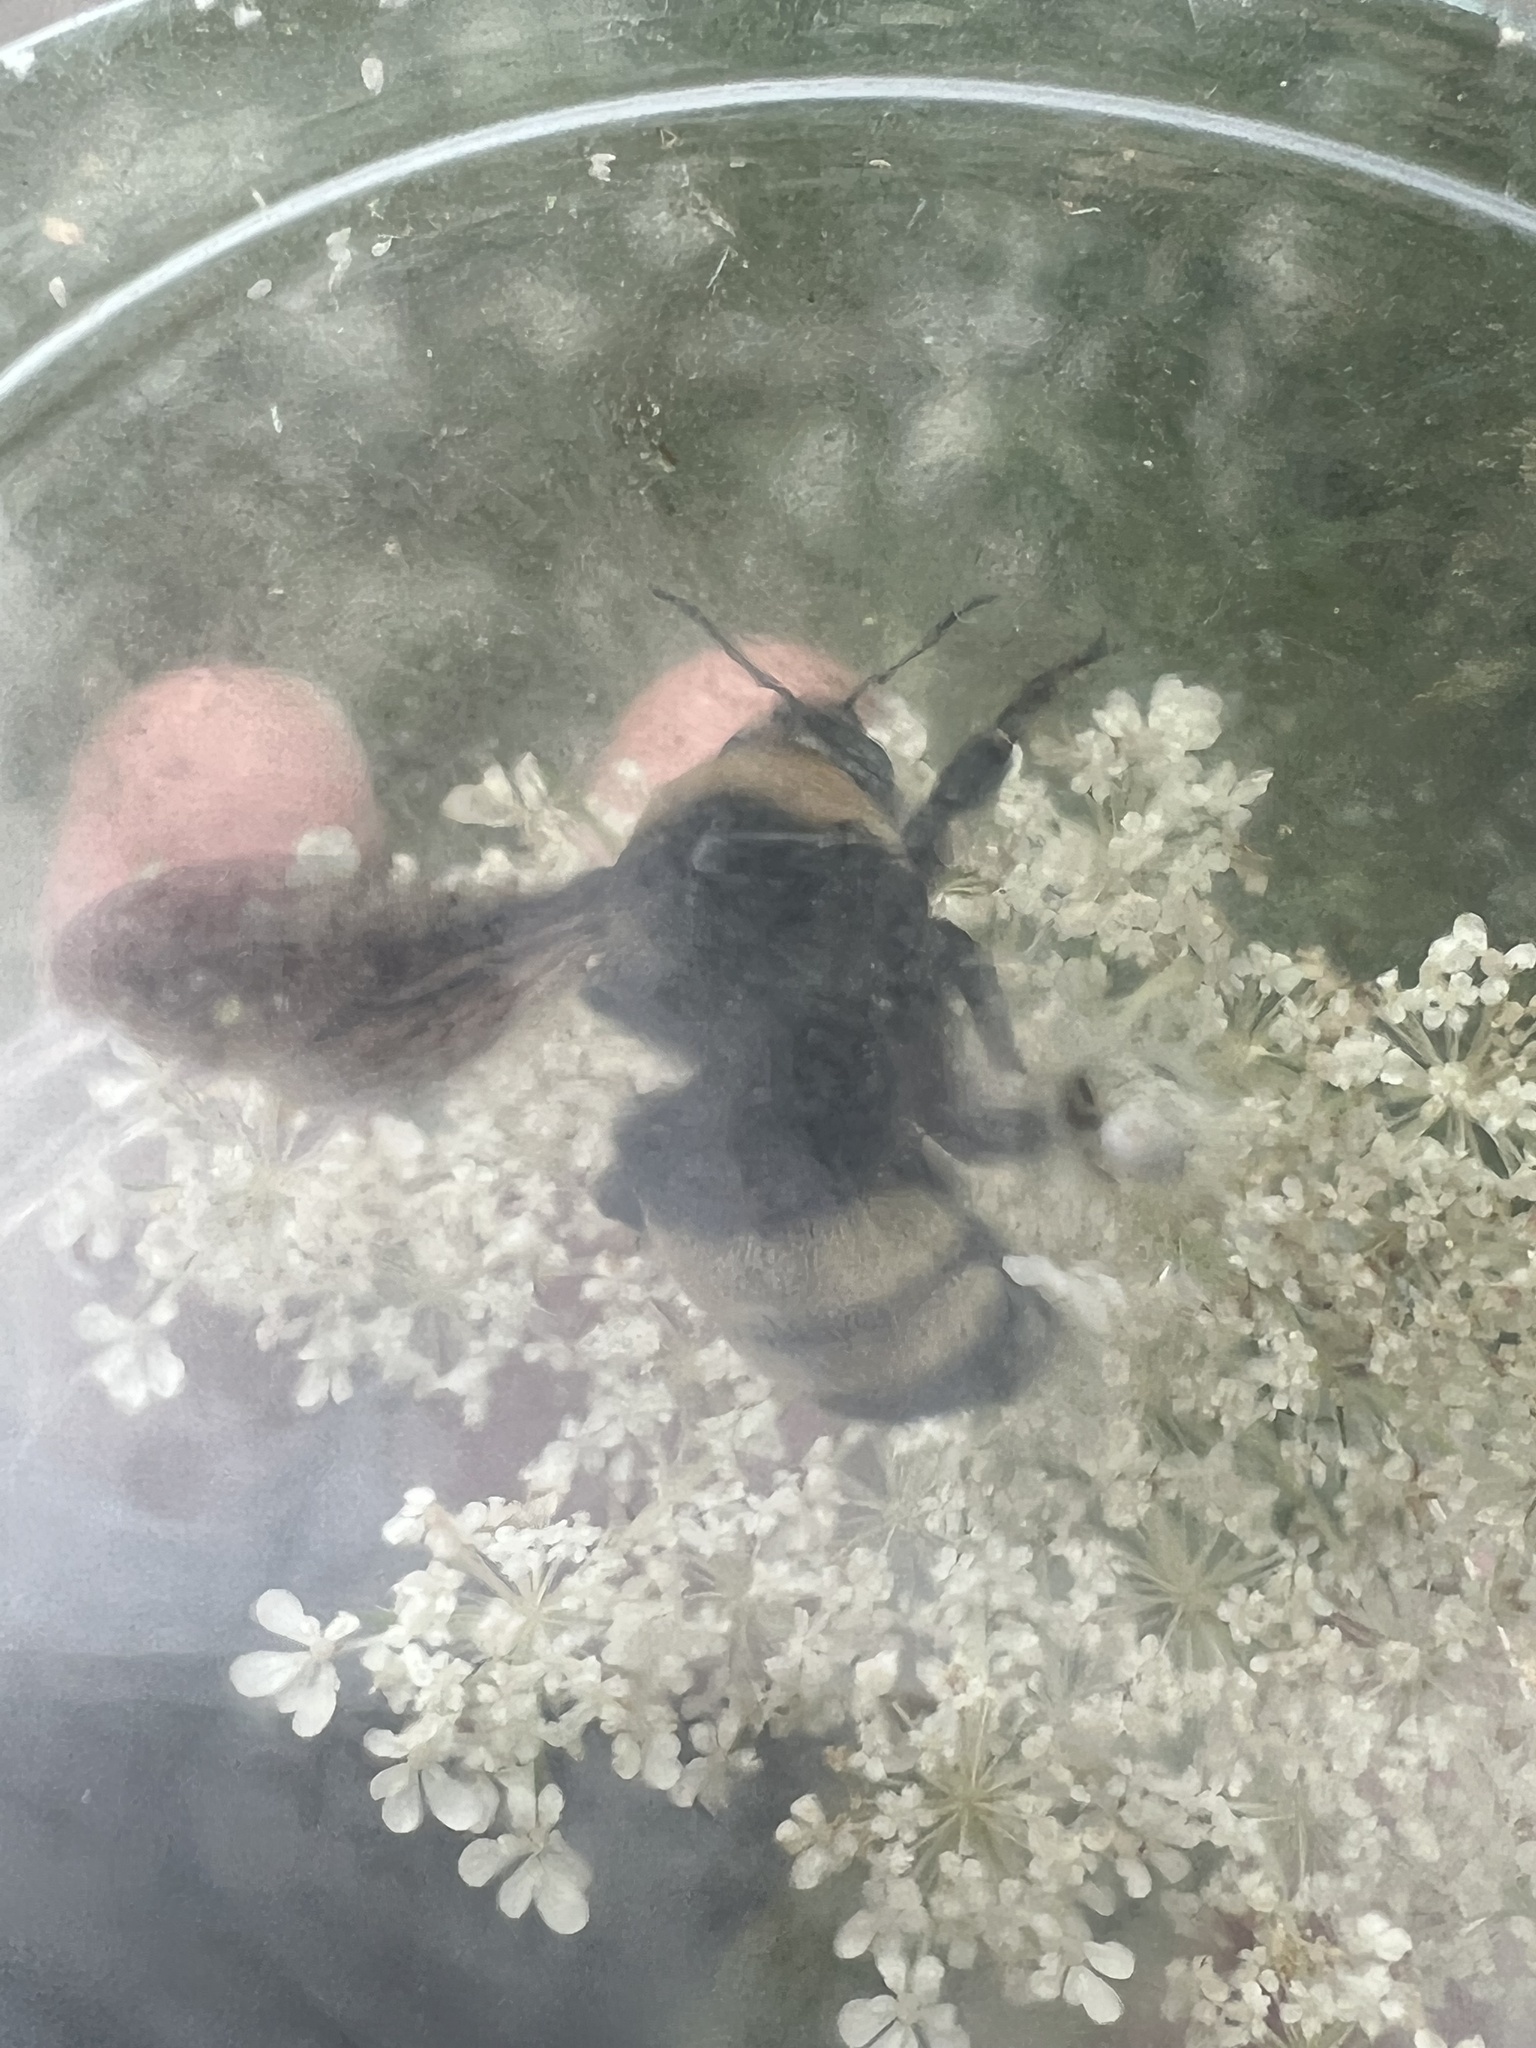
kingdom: Animalia
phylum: Arthropoda
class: Insecta
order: Hymenoptera
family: Apidae
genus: Bombus
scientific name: Bombus auricomus
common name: Black and gold bumble bee
